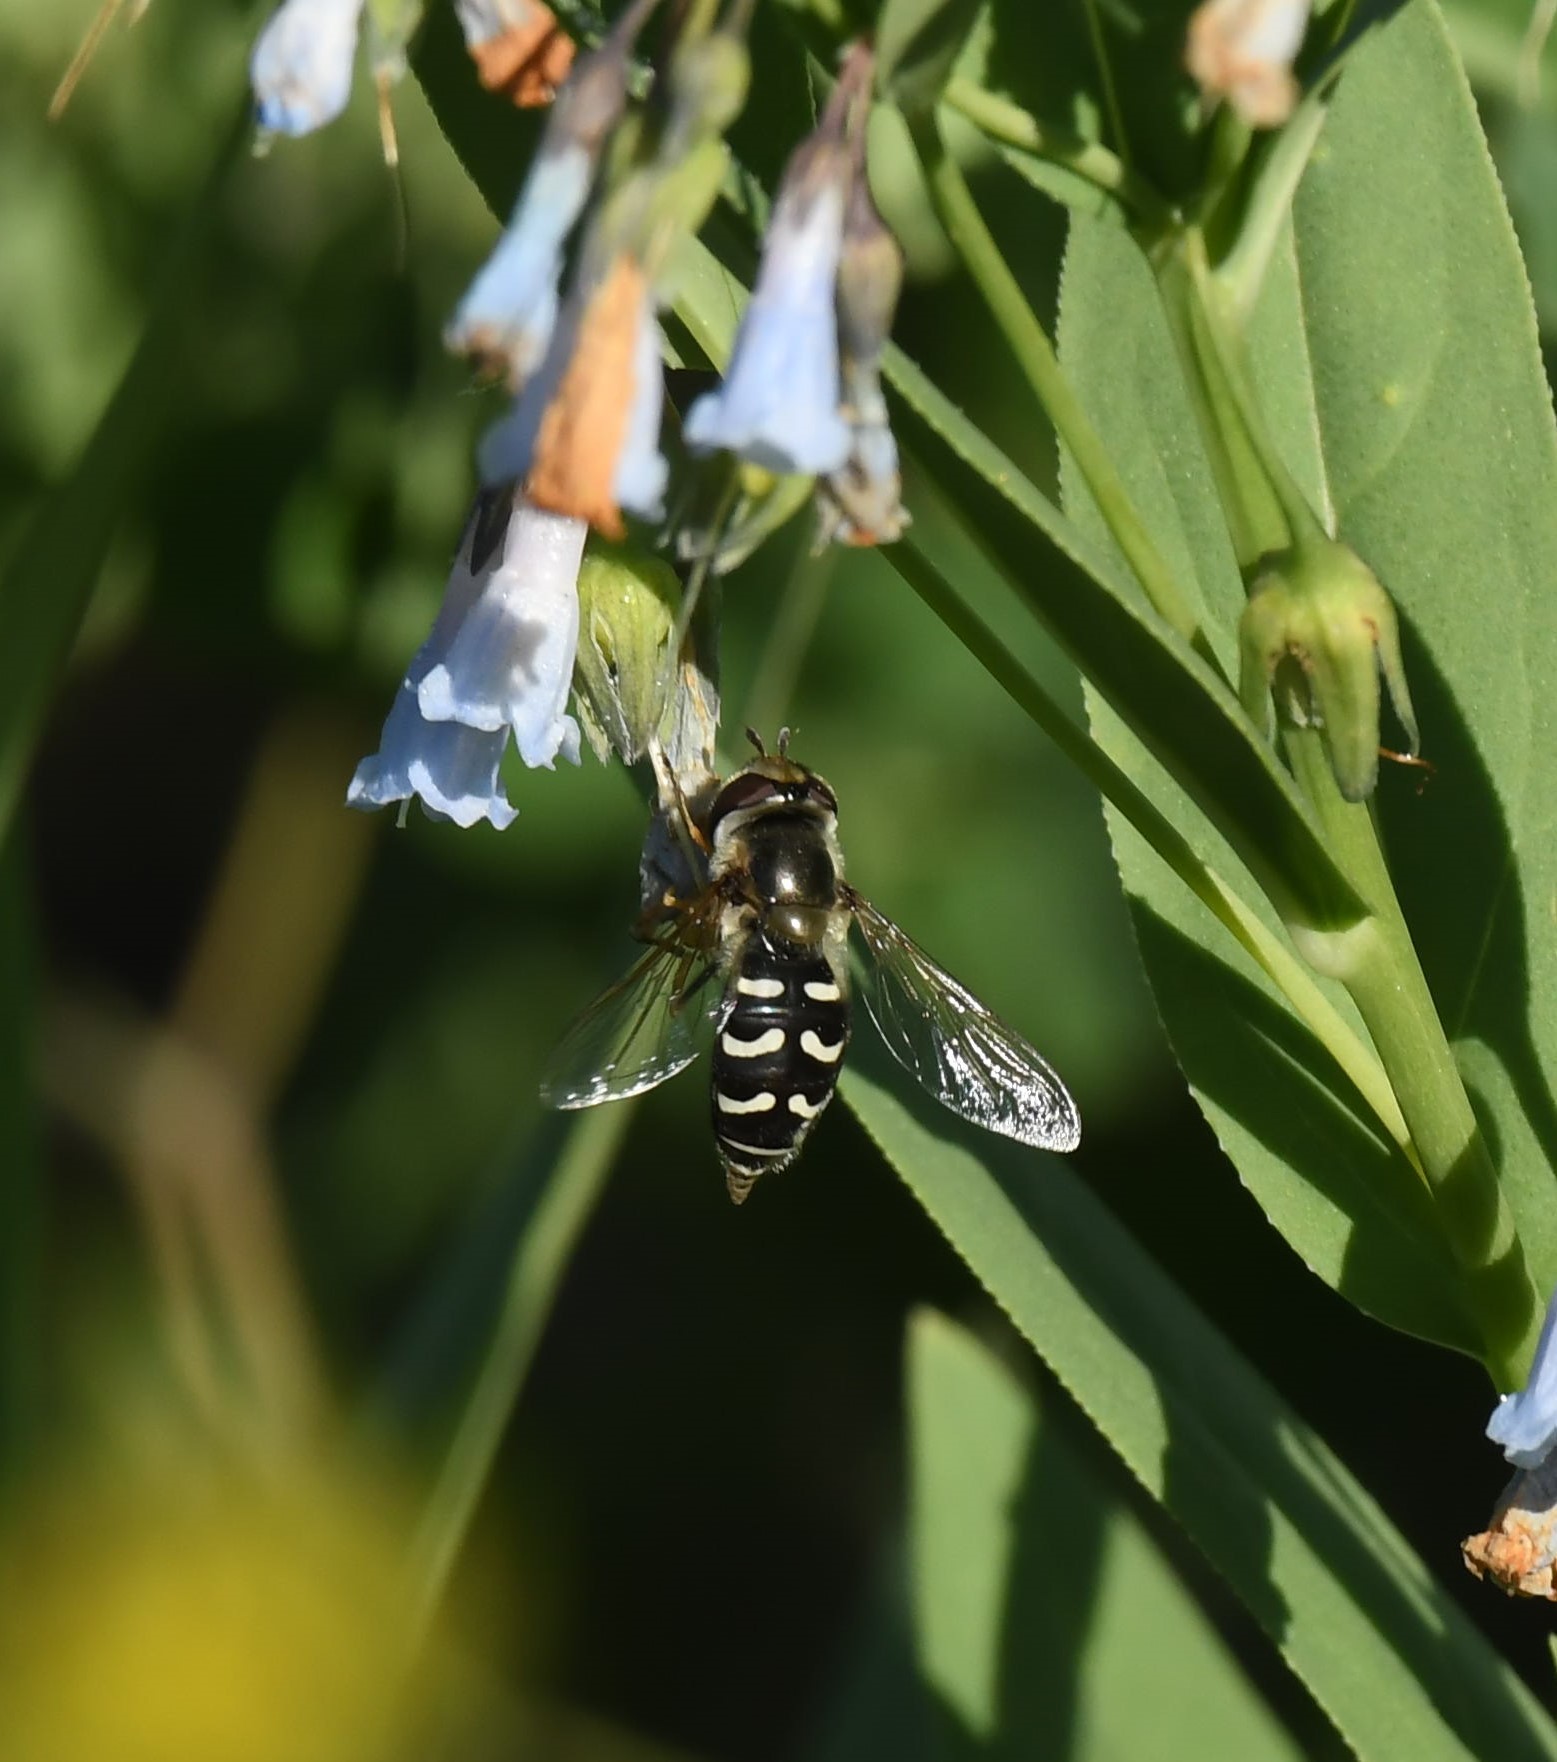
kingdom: Animalia
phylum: Arthropoda
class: Insecta
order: Diptera
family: Syrphidae
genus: Scaeva
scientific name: Scaeva affinis
